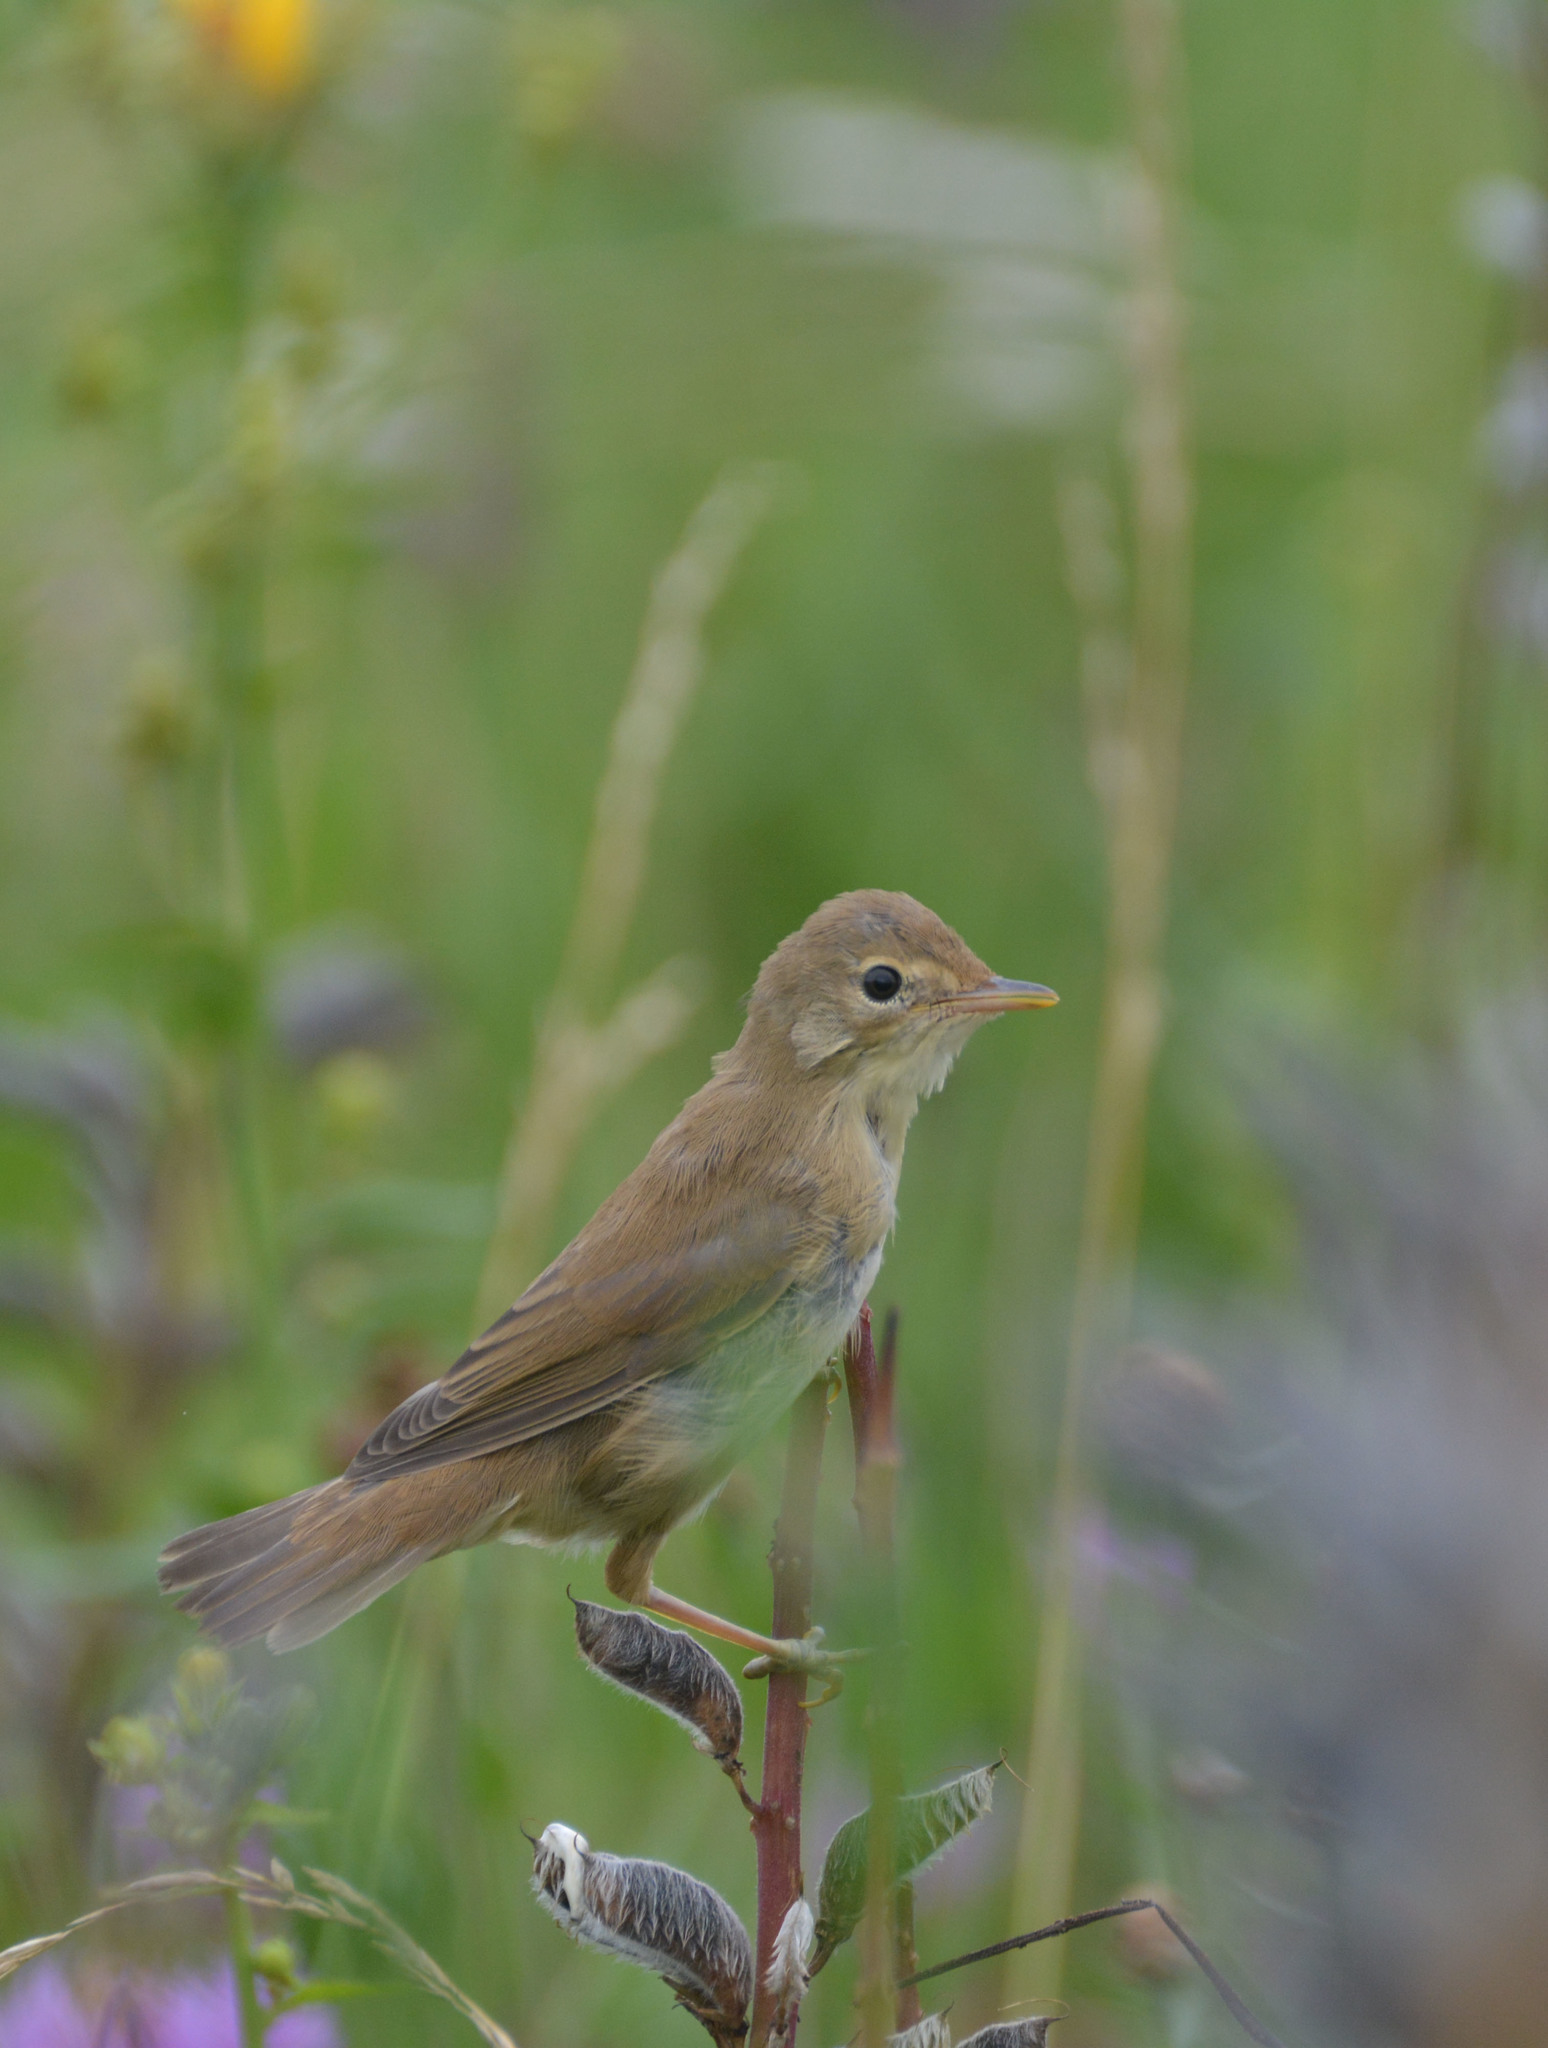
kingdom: Animalia
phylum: Chordata
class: Aves
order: Passeriformes
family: Acrocephalidae
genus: Acrocephalus
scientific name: Acrocephalus palustris
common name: Marsh warbler
